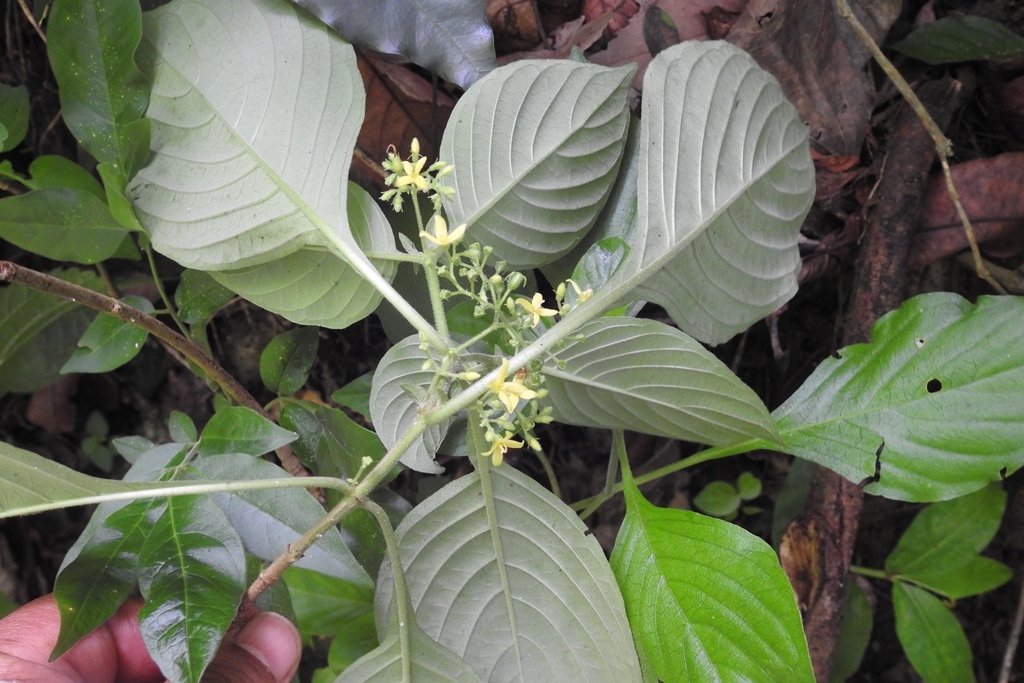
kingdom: Plantae
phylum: Tracheophyta
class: Magnoliopsida
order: Gentianales
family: Rubiaceae
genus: Deppea
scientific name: Deppea hintonii
